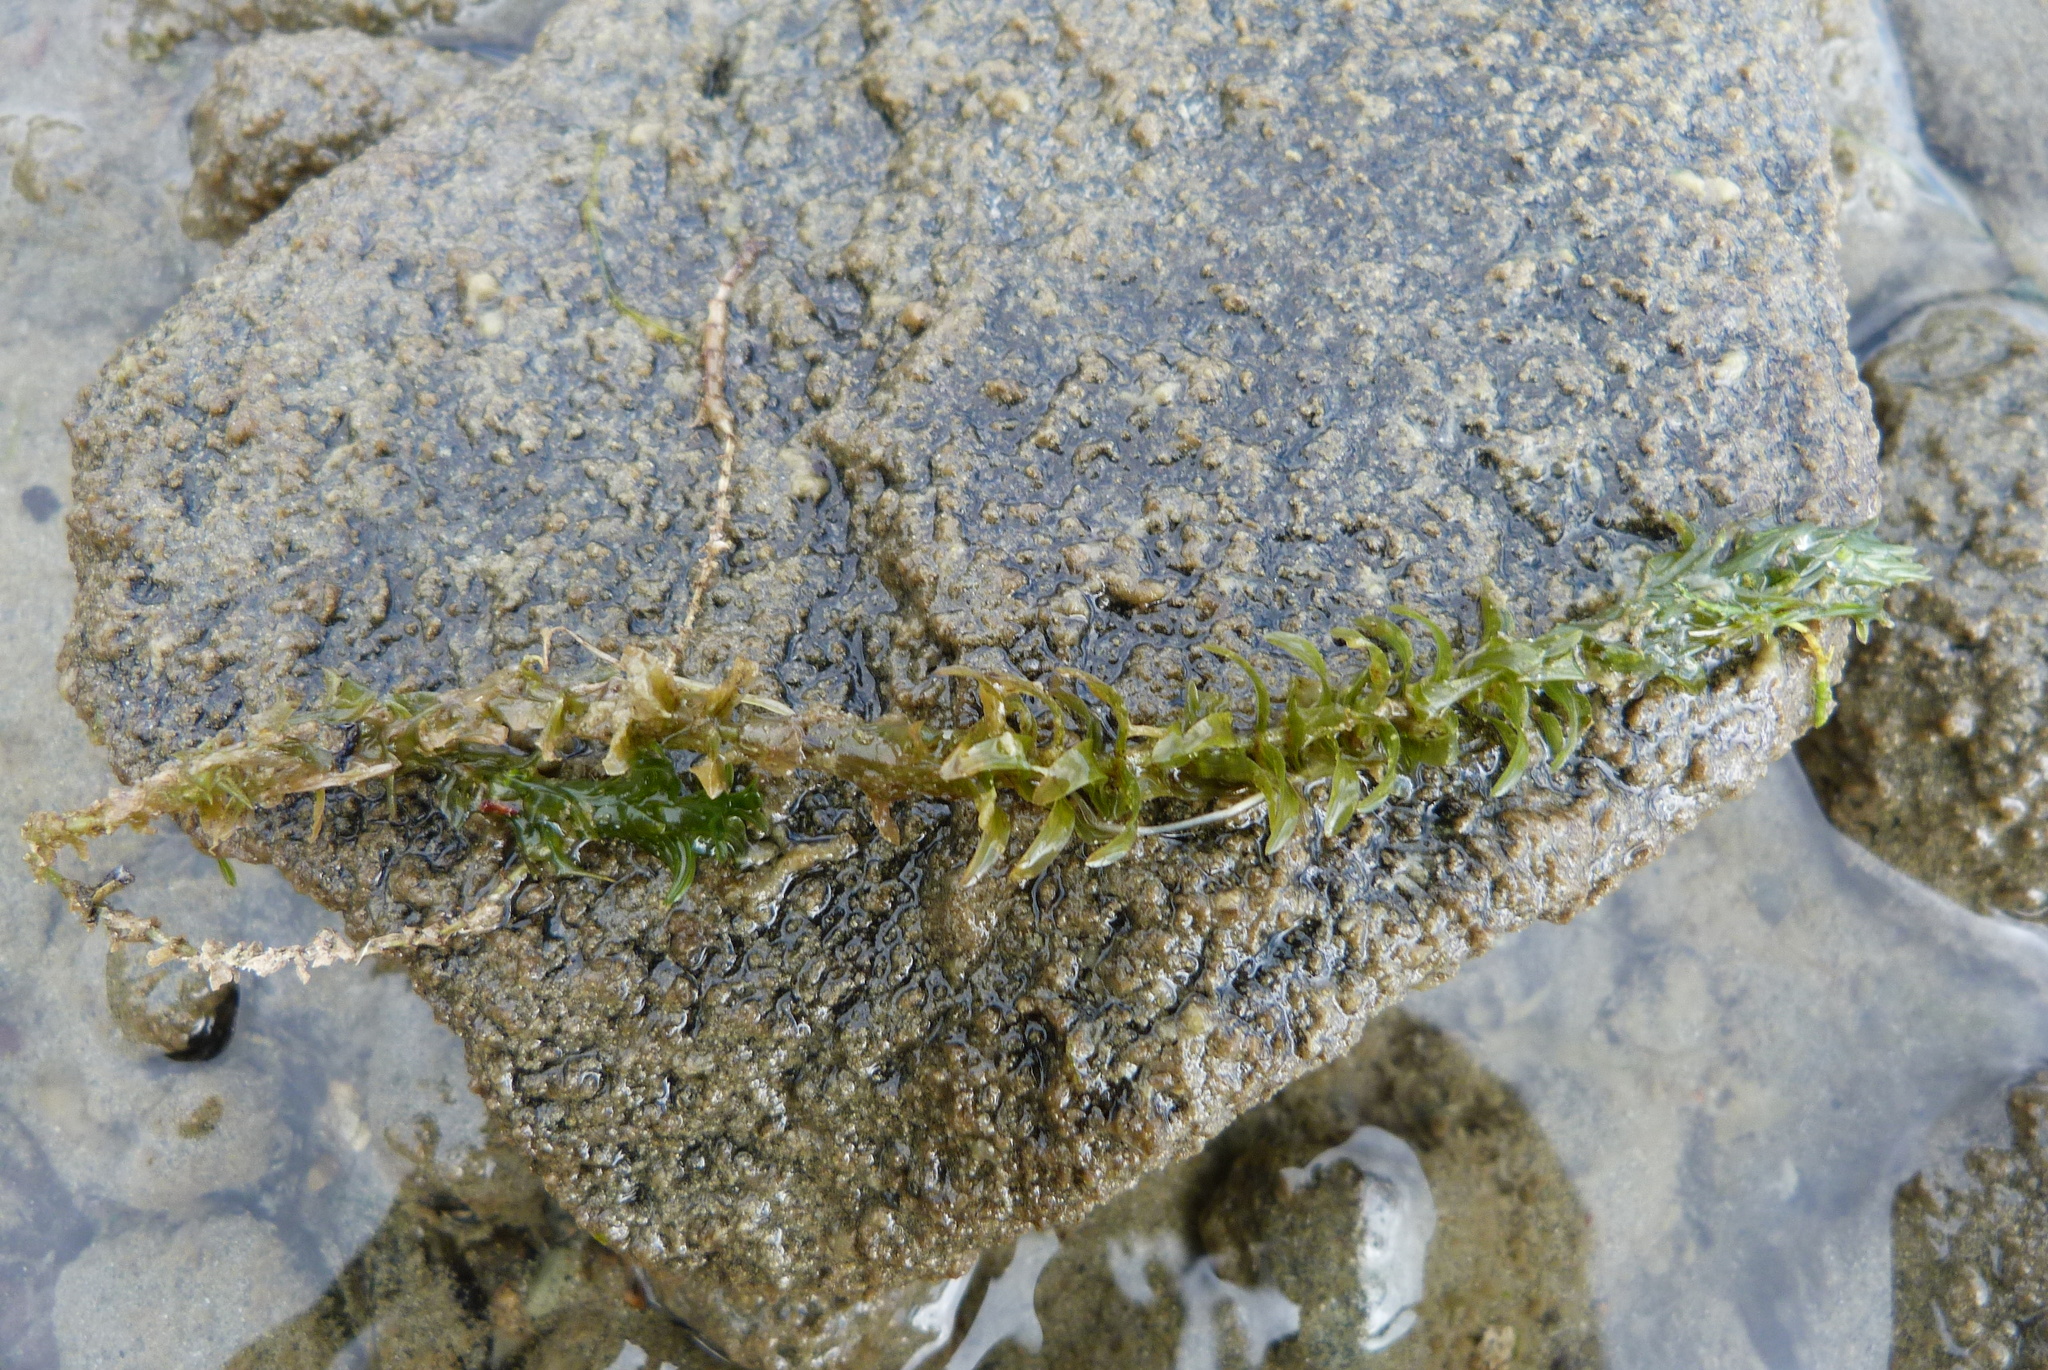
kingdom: Plantae
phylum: Tracheophyta
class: Liliopsida
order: Alismatales
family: Hydrocharitaceae
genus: Elodea
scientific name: Elodea canadensis
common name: Canadian waterweed
